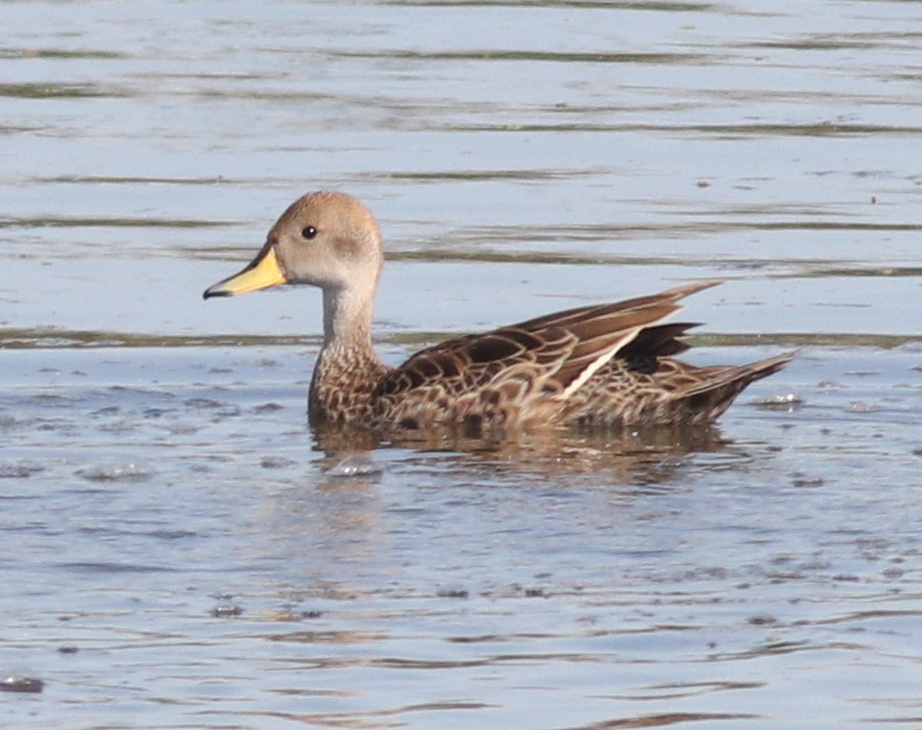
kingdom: Animalia
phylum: Chordata
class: Aves
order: Anseriformes
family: Anatidae
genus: Anas
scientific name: Anas georgica
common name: Yellow-billed pintail
